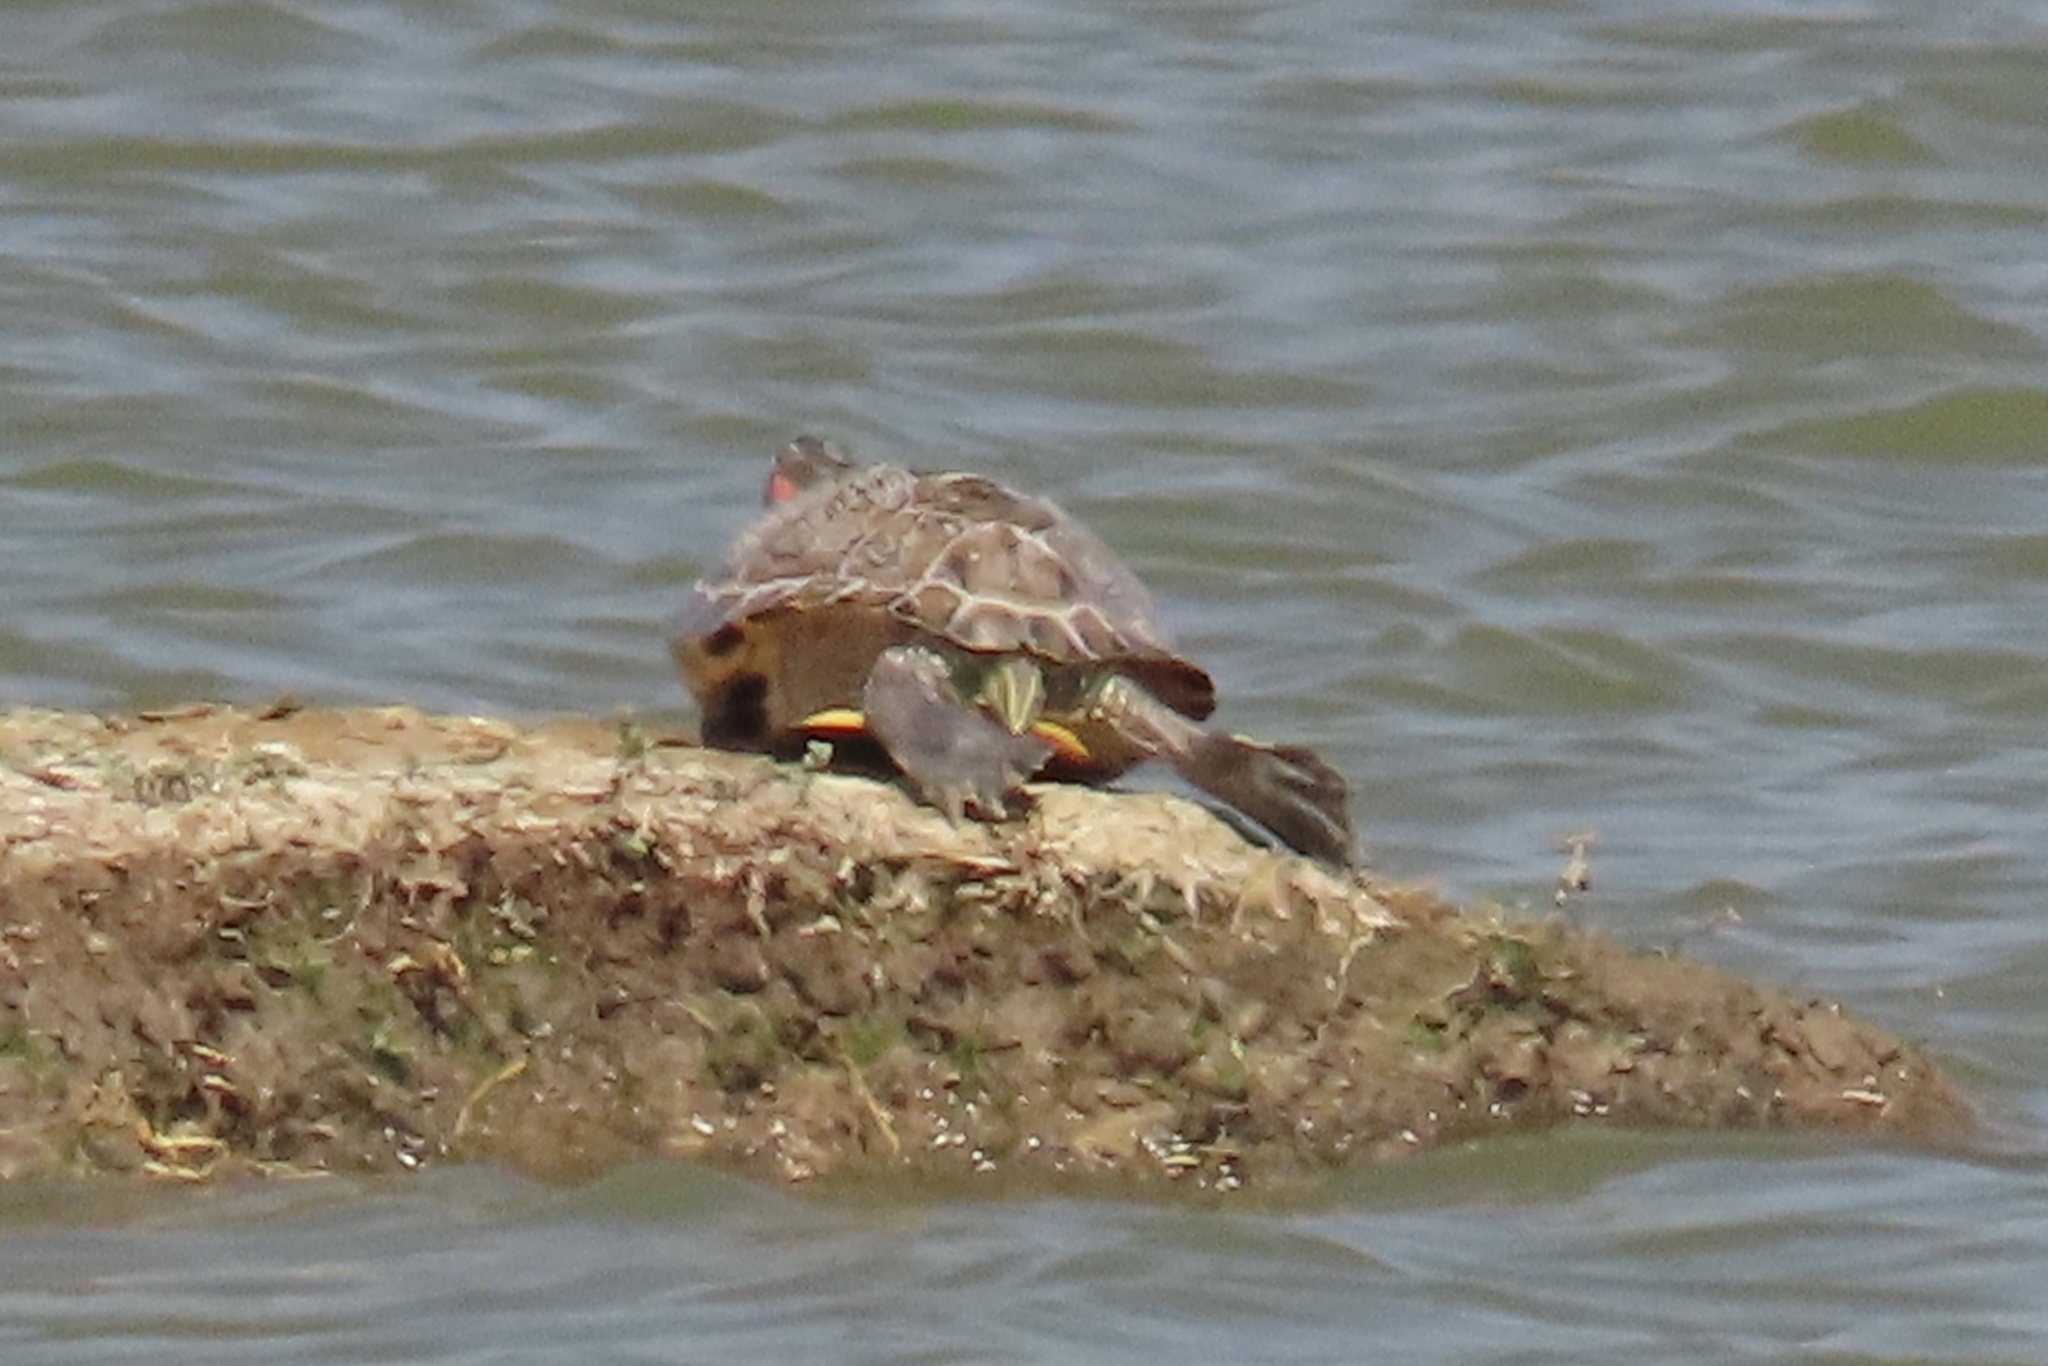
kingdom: Animalia
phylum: Chordata
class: Testudines
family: Emydidae
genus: Trachemys
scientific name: Trachemys scripta
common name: Slider
